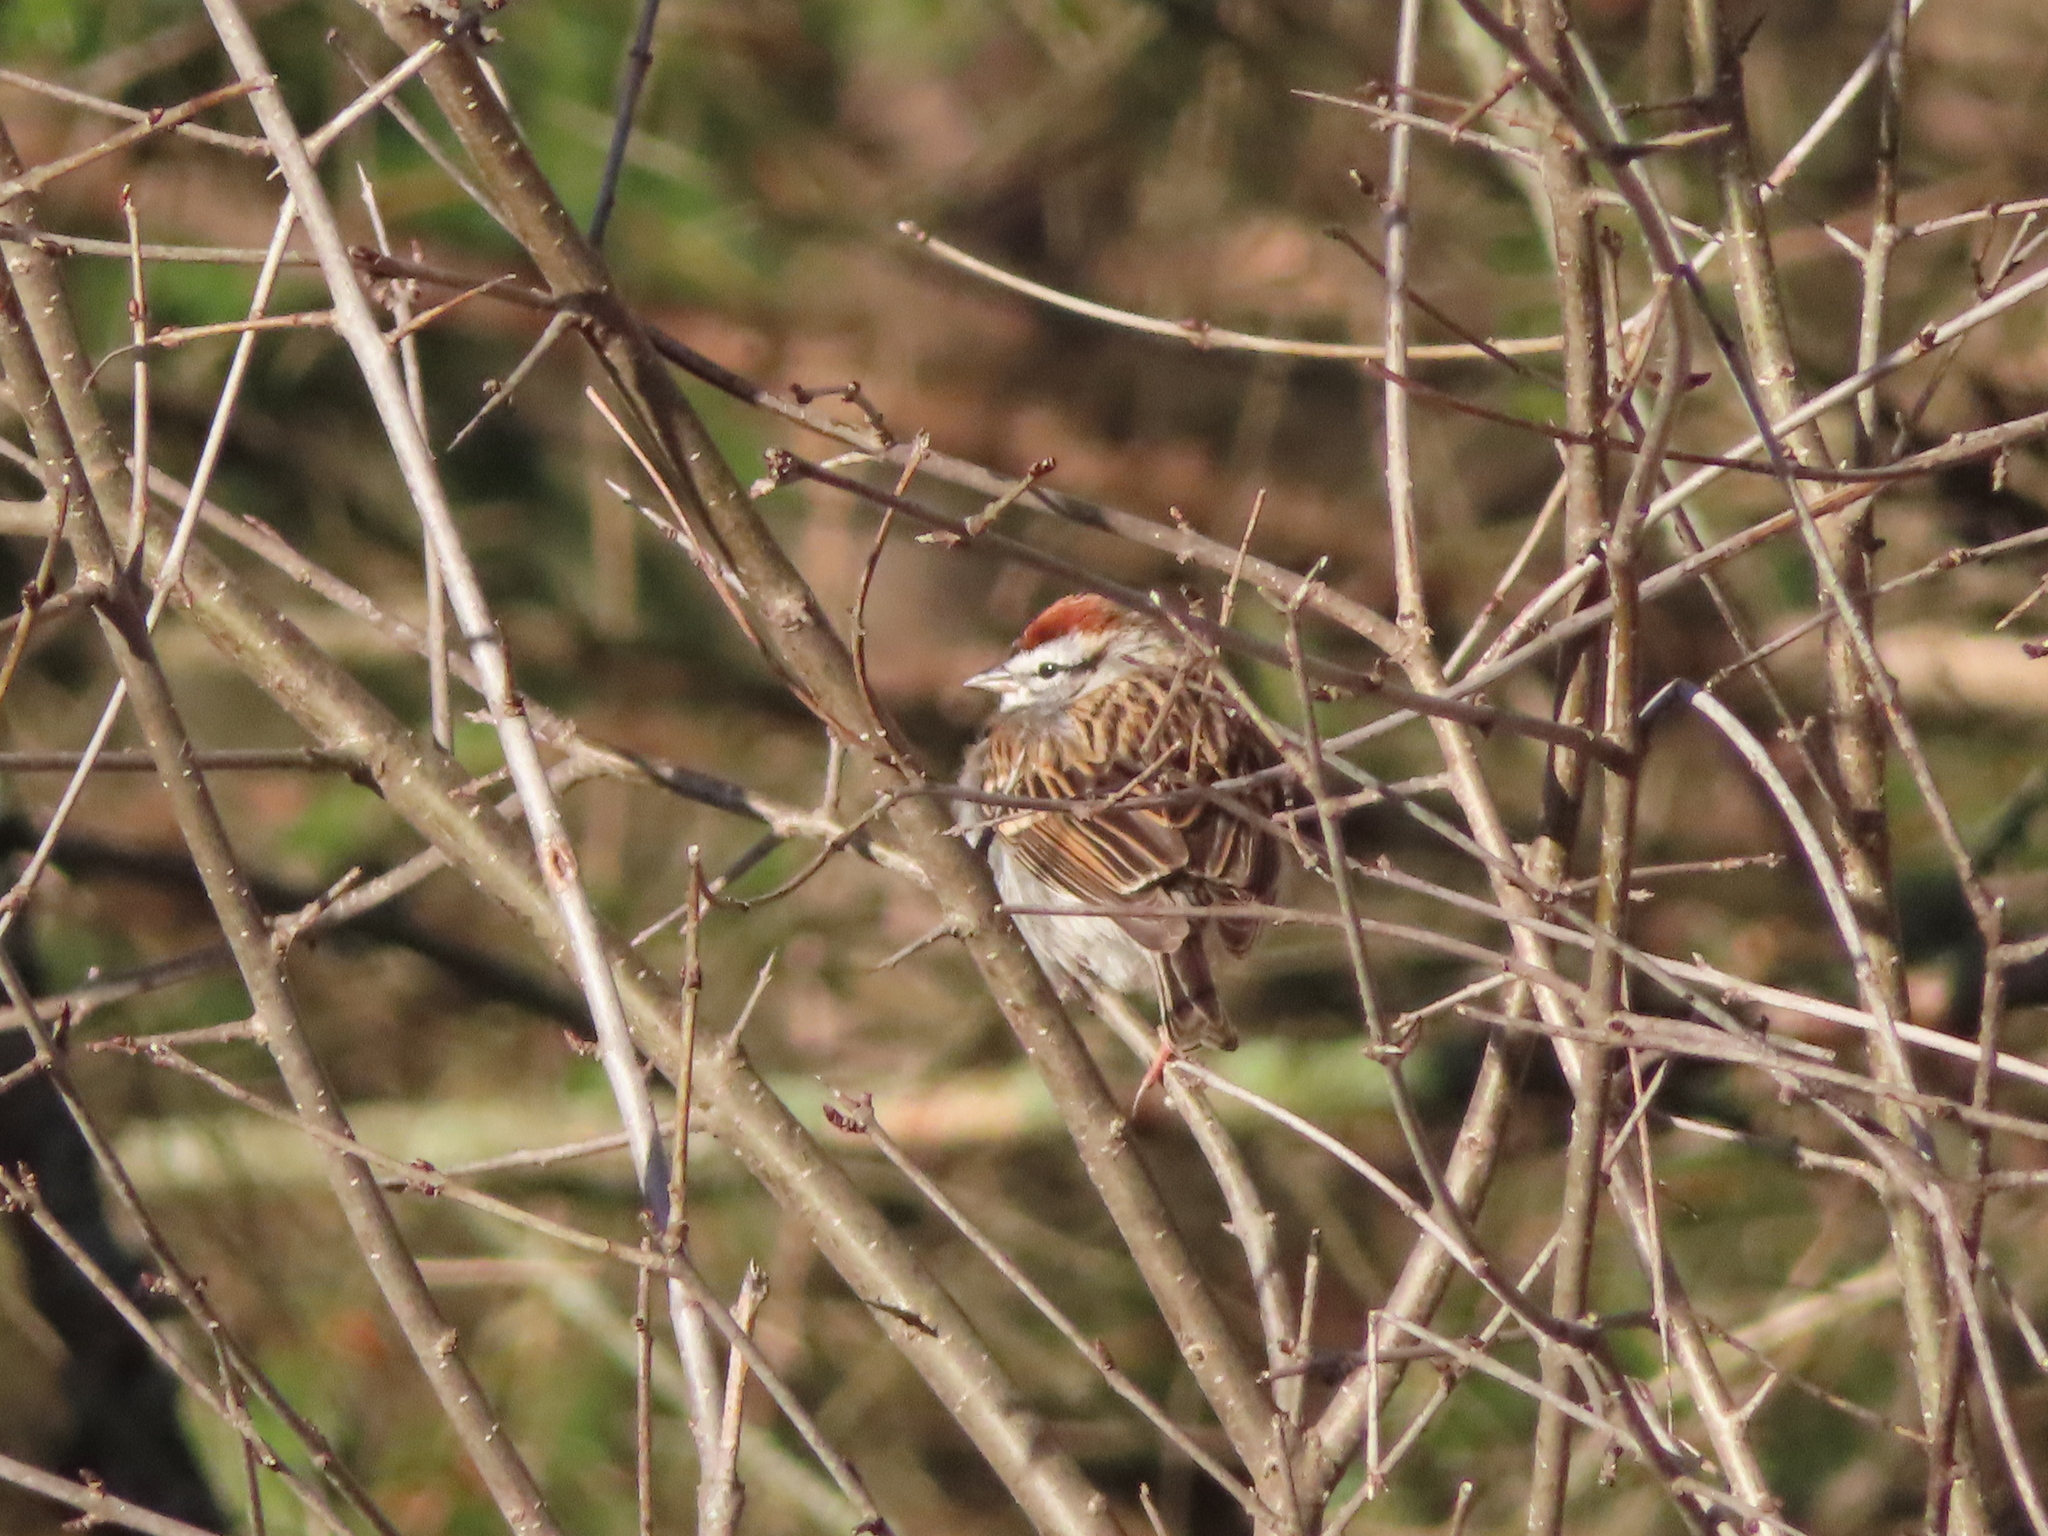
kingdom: Animalia
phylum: Chordata
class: Aves
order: Passeriformes
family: Passerellidae
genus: Spizella
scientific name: Spizella passerina
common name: Chipping sparrow
